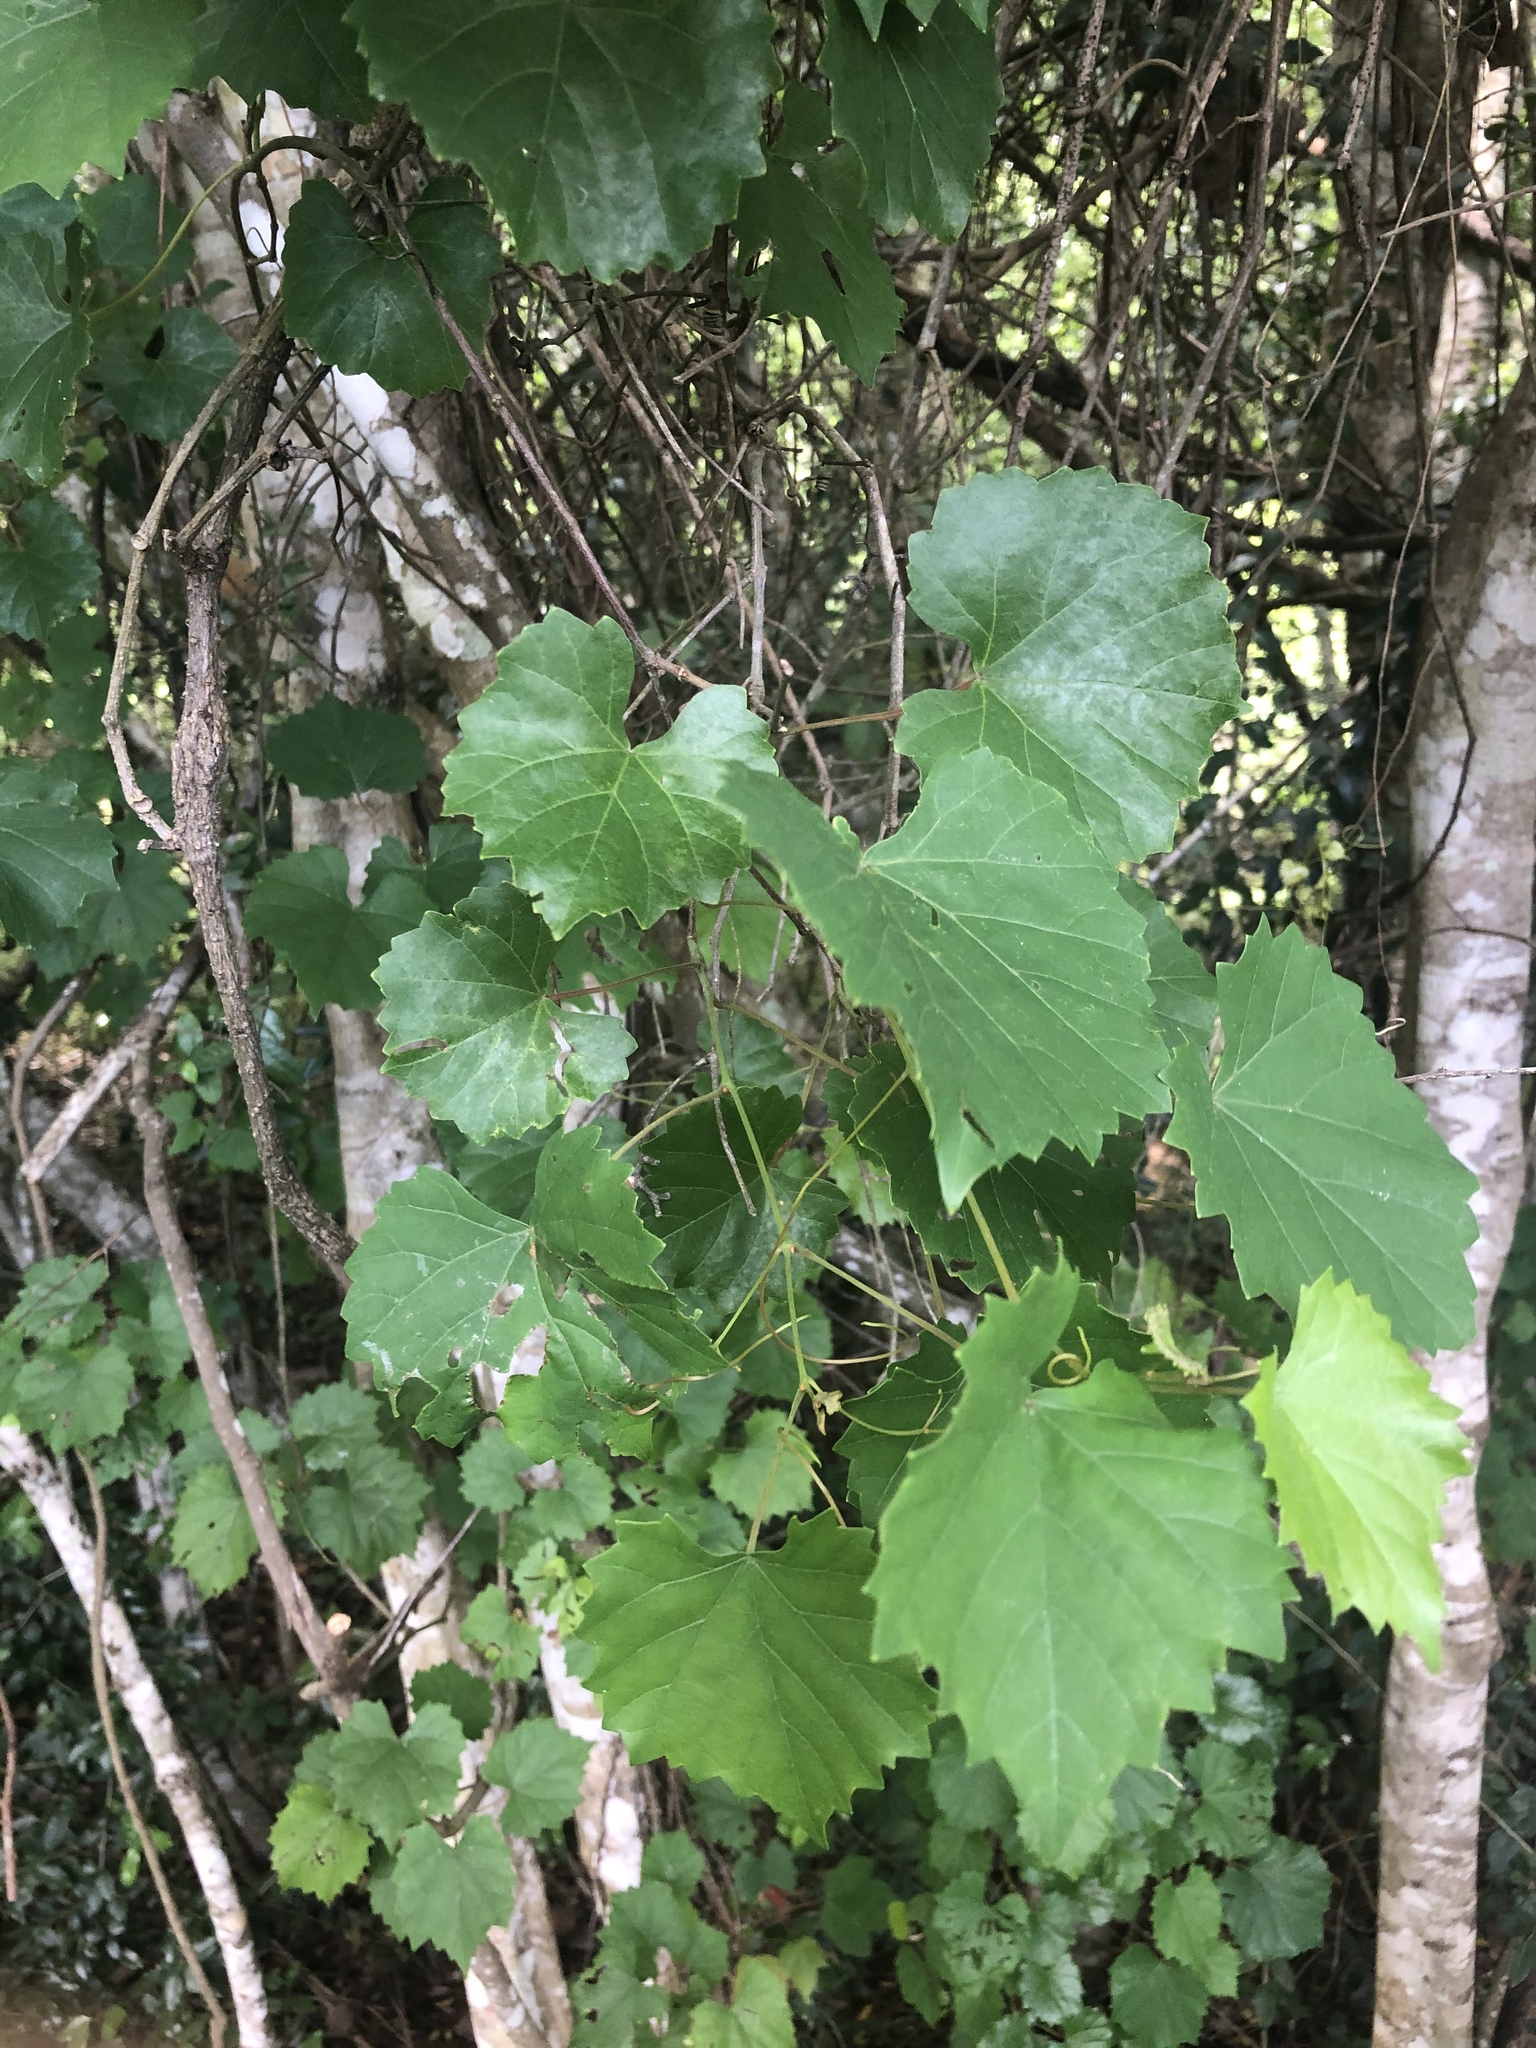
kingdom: Plantae
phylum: Tracheophyta
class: Magnoliopsida
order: Vitales
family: Vitaceae
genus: Vitis
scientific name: Vitis rotundifolia
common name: Muscadine grape
